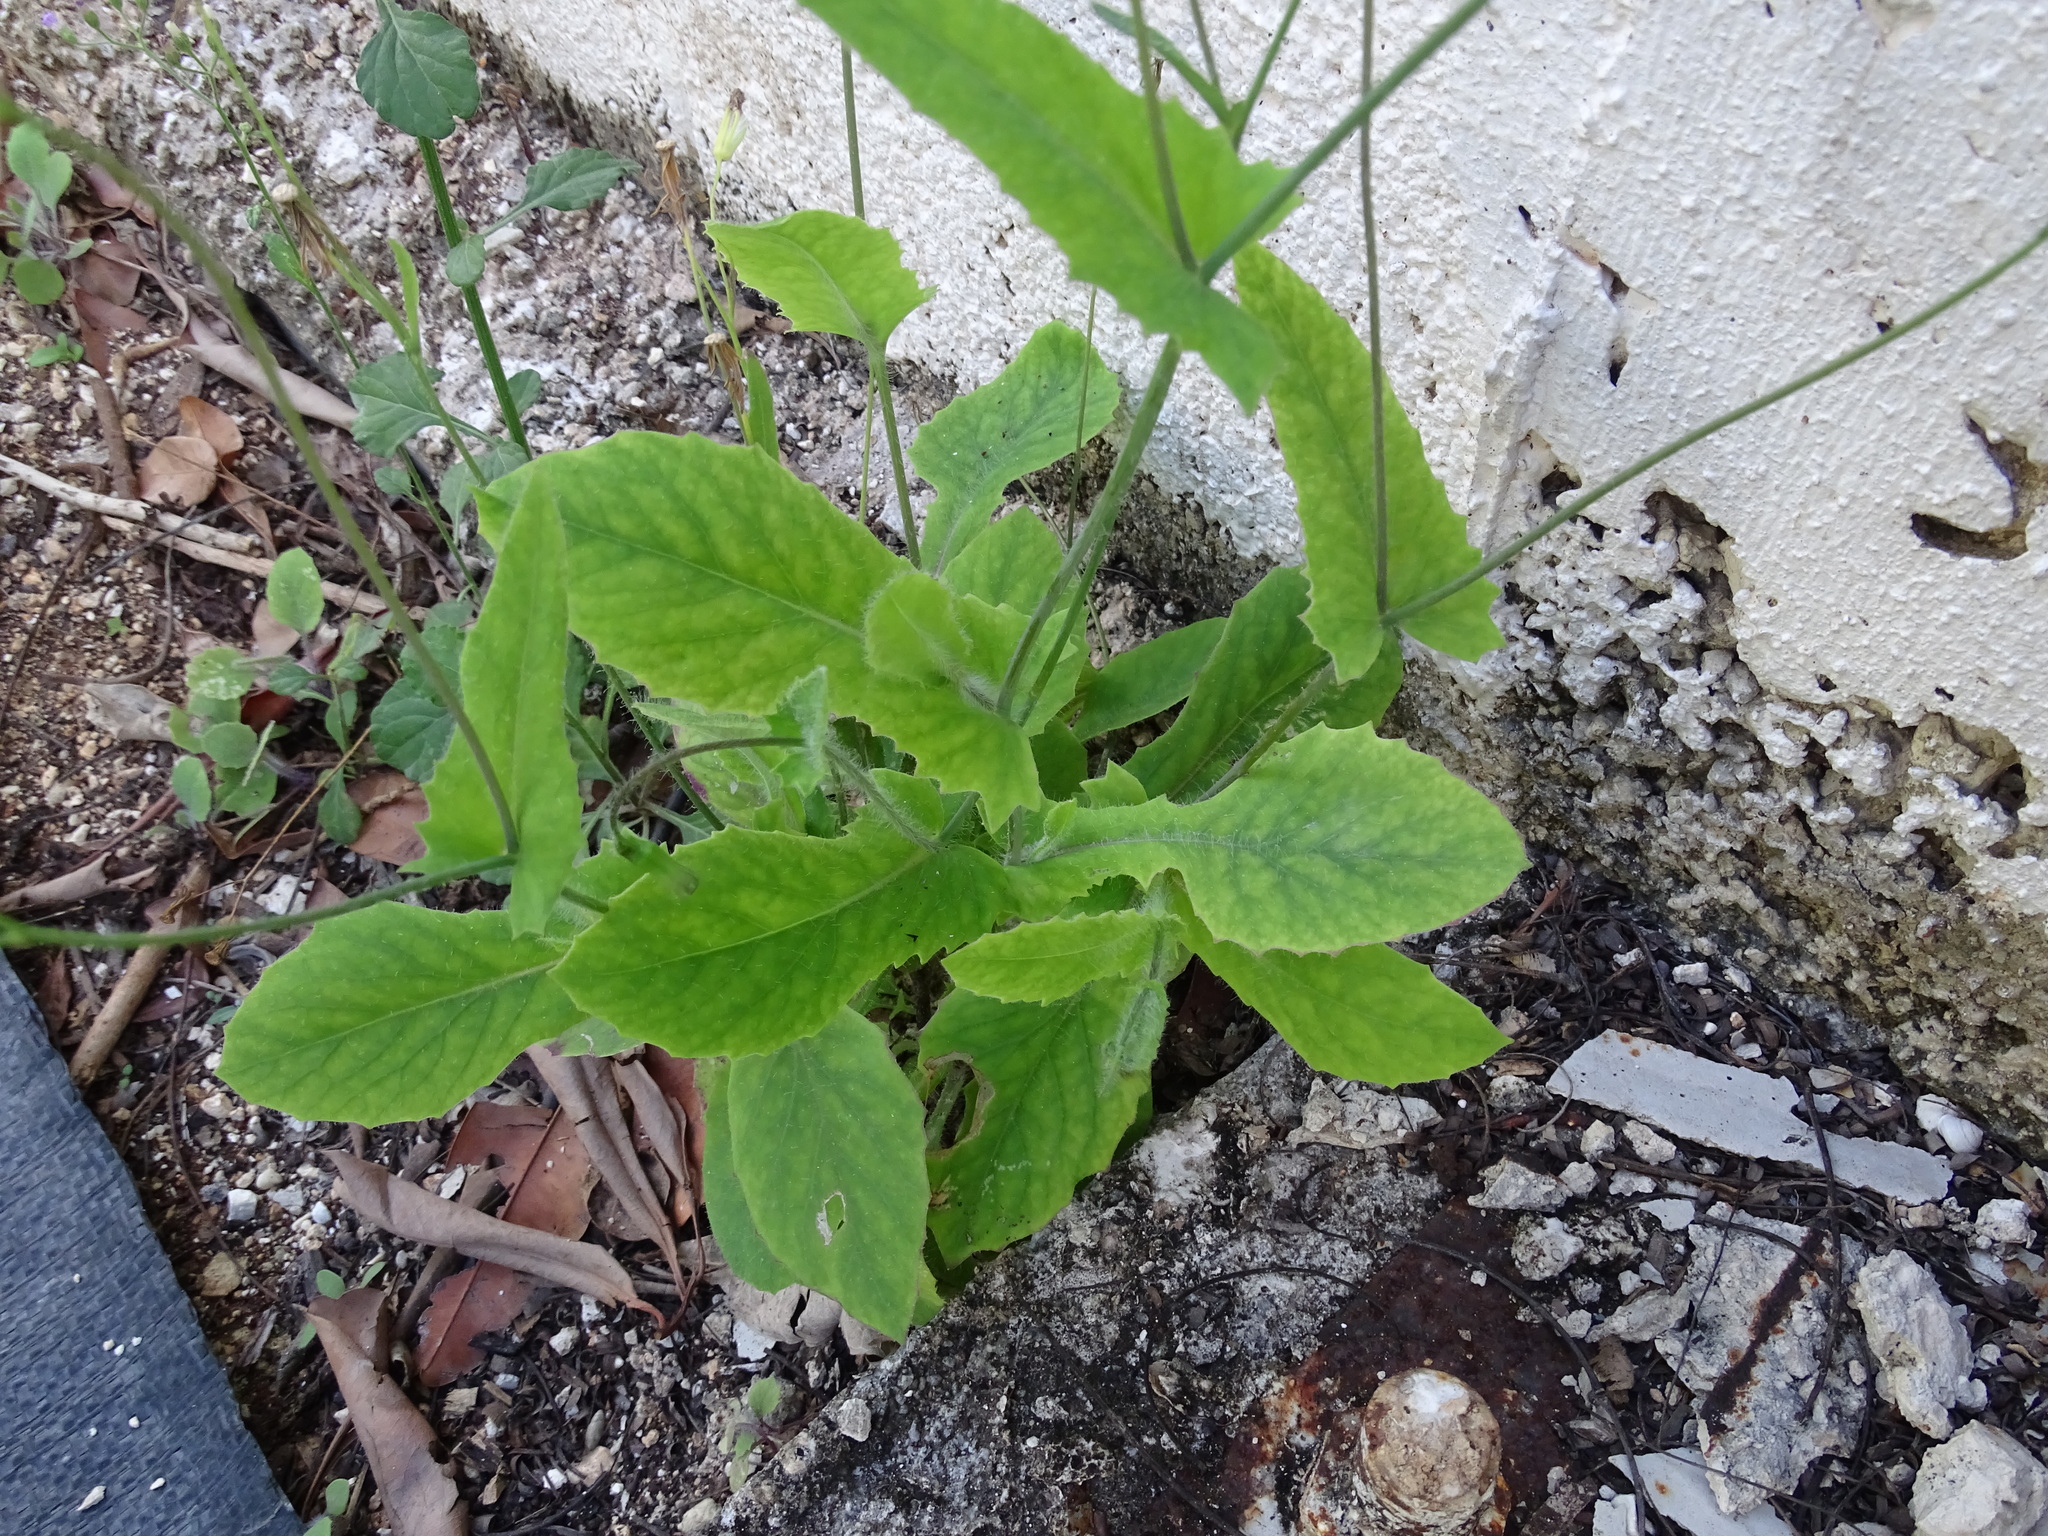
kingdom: Plantae
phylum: Tracheophyta
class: Magnoliopsida
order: Asterales
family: Asteraceae
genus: Emilia
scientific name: Emilia fosbergii
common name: Florida tasselflower
